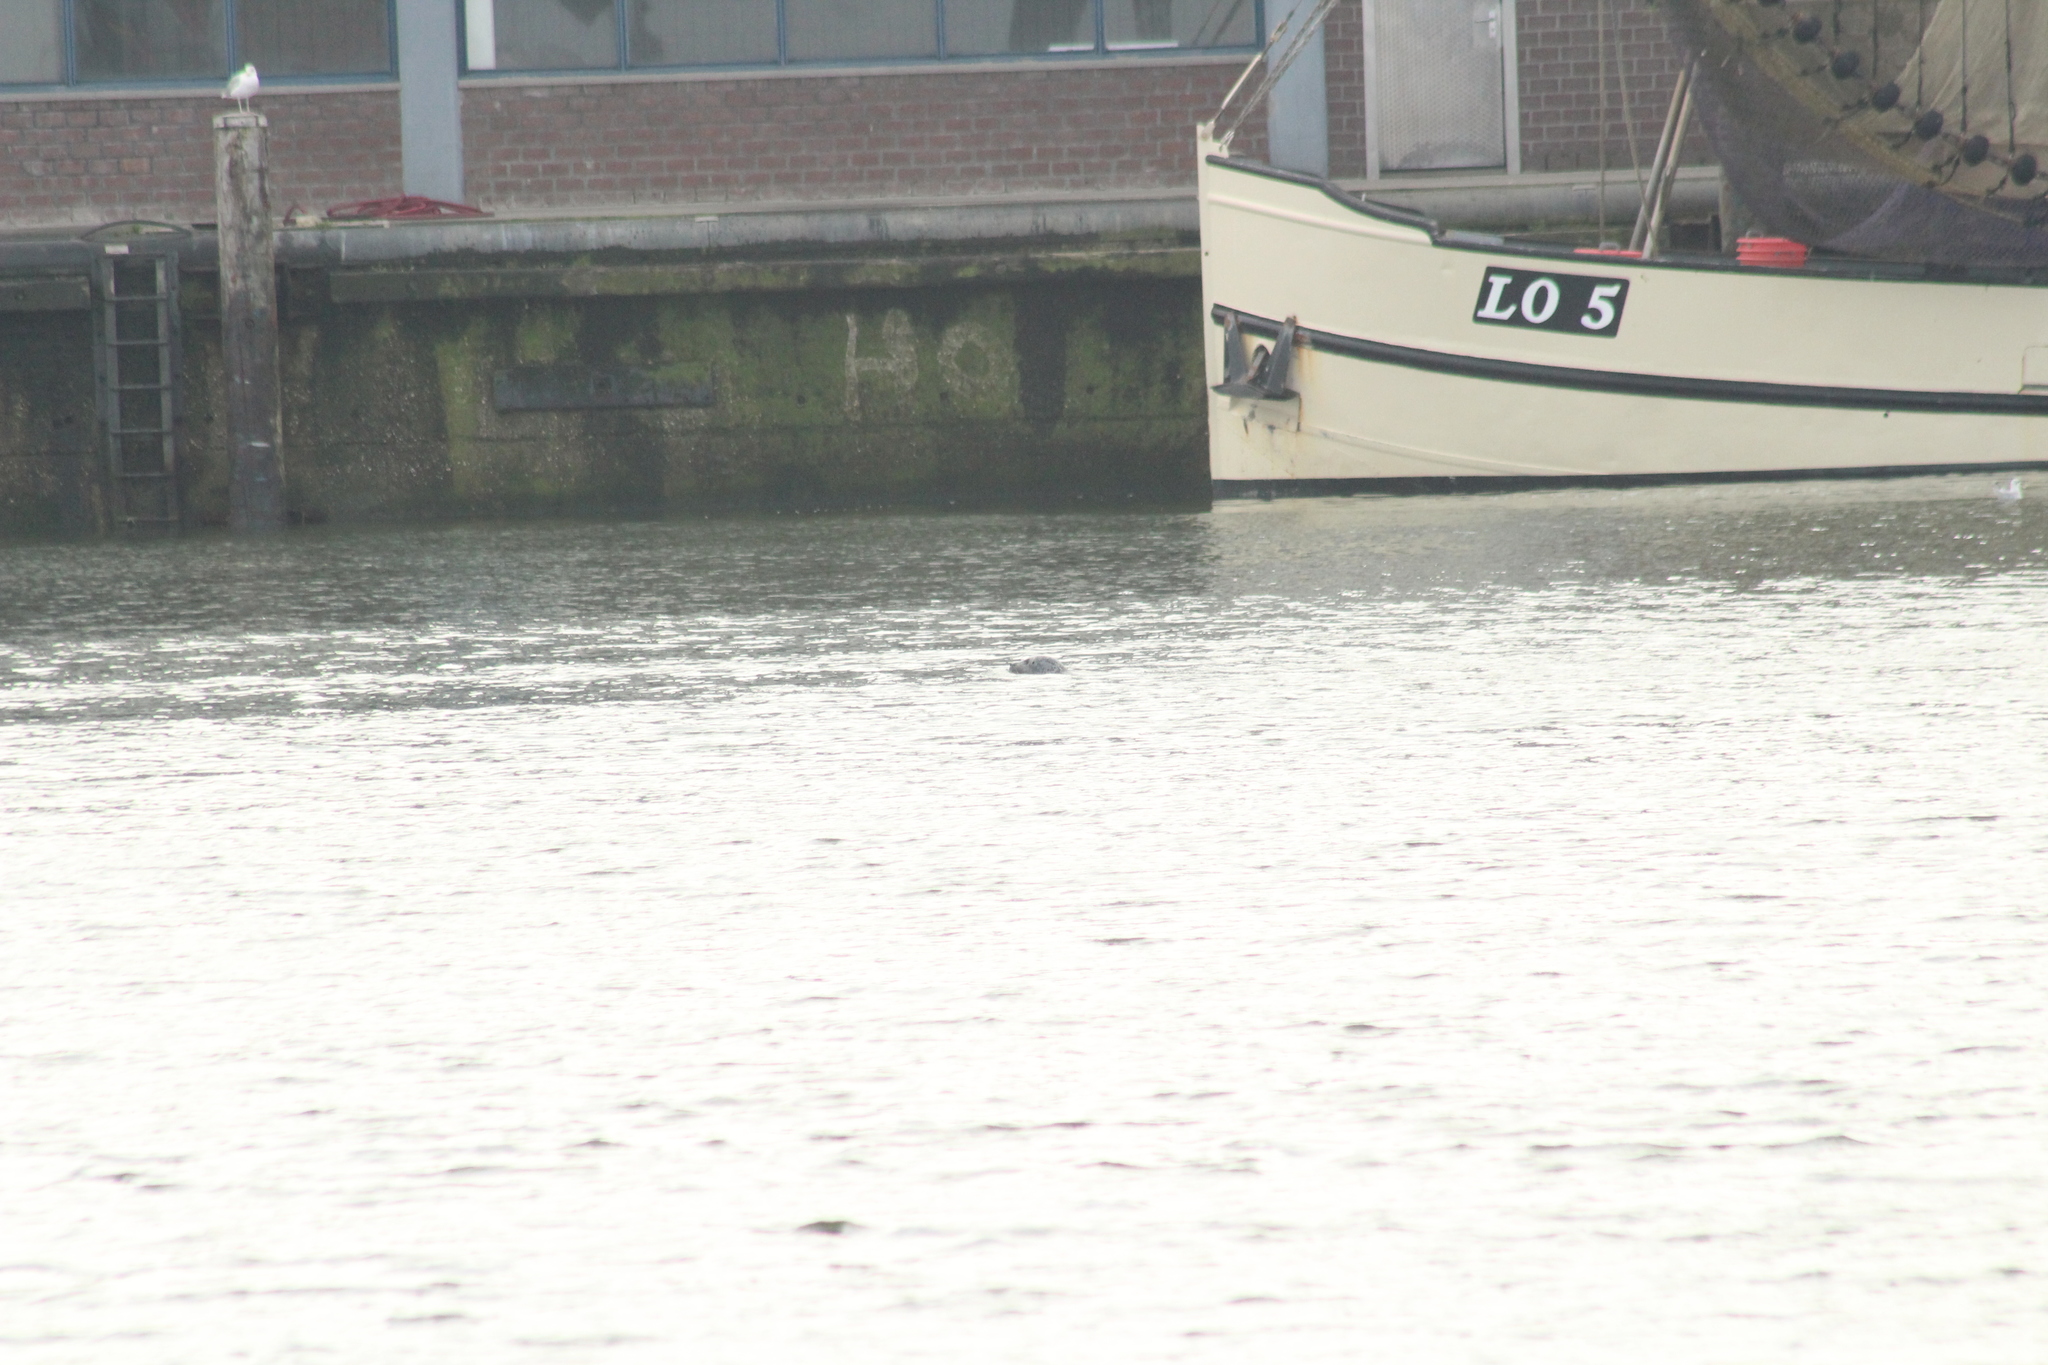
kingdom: Animalia
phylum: Chordata
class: Mammalia
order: Carnivora
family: Phocidae
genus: Phoca
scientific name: Phoca vitulina
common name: Harbor seal
